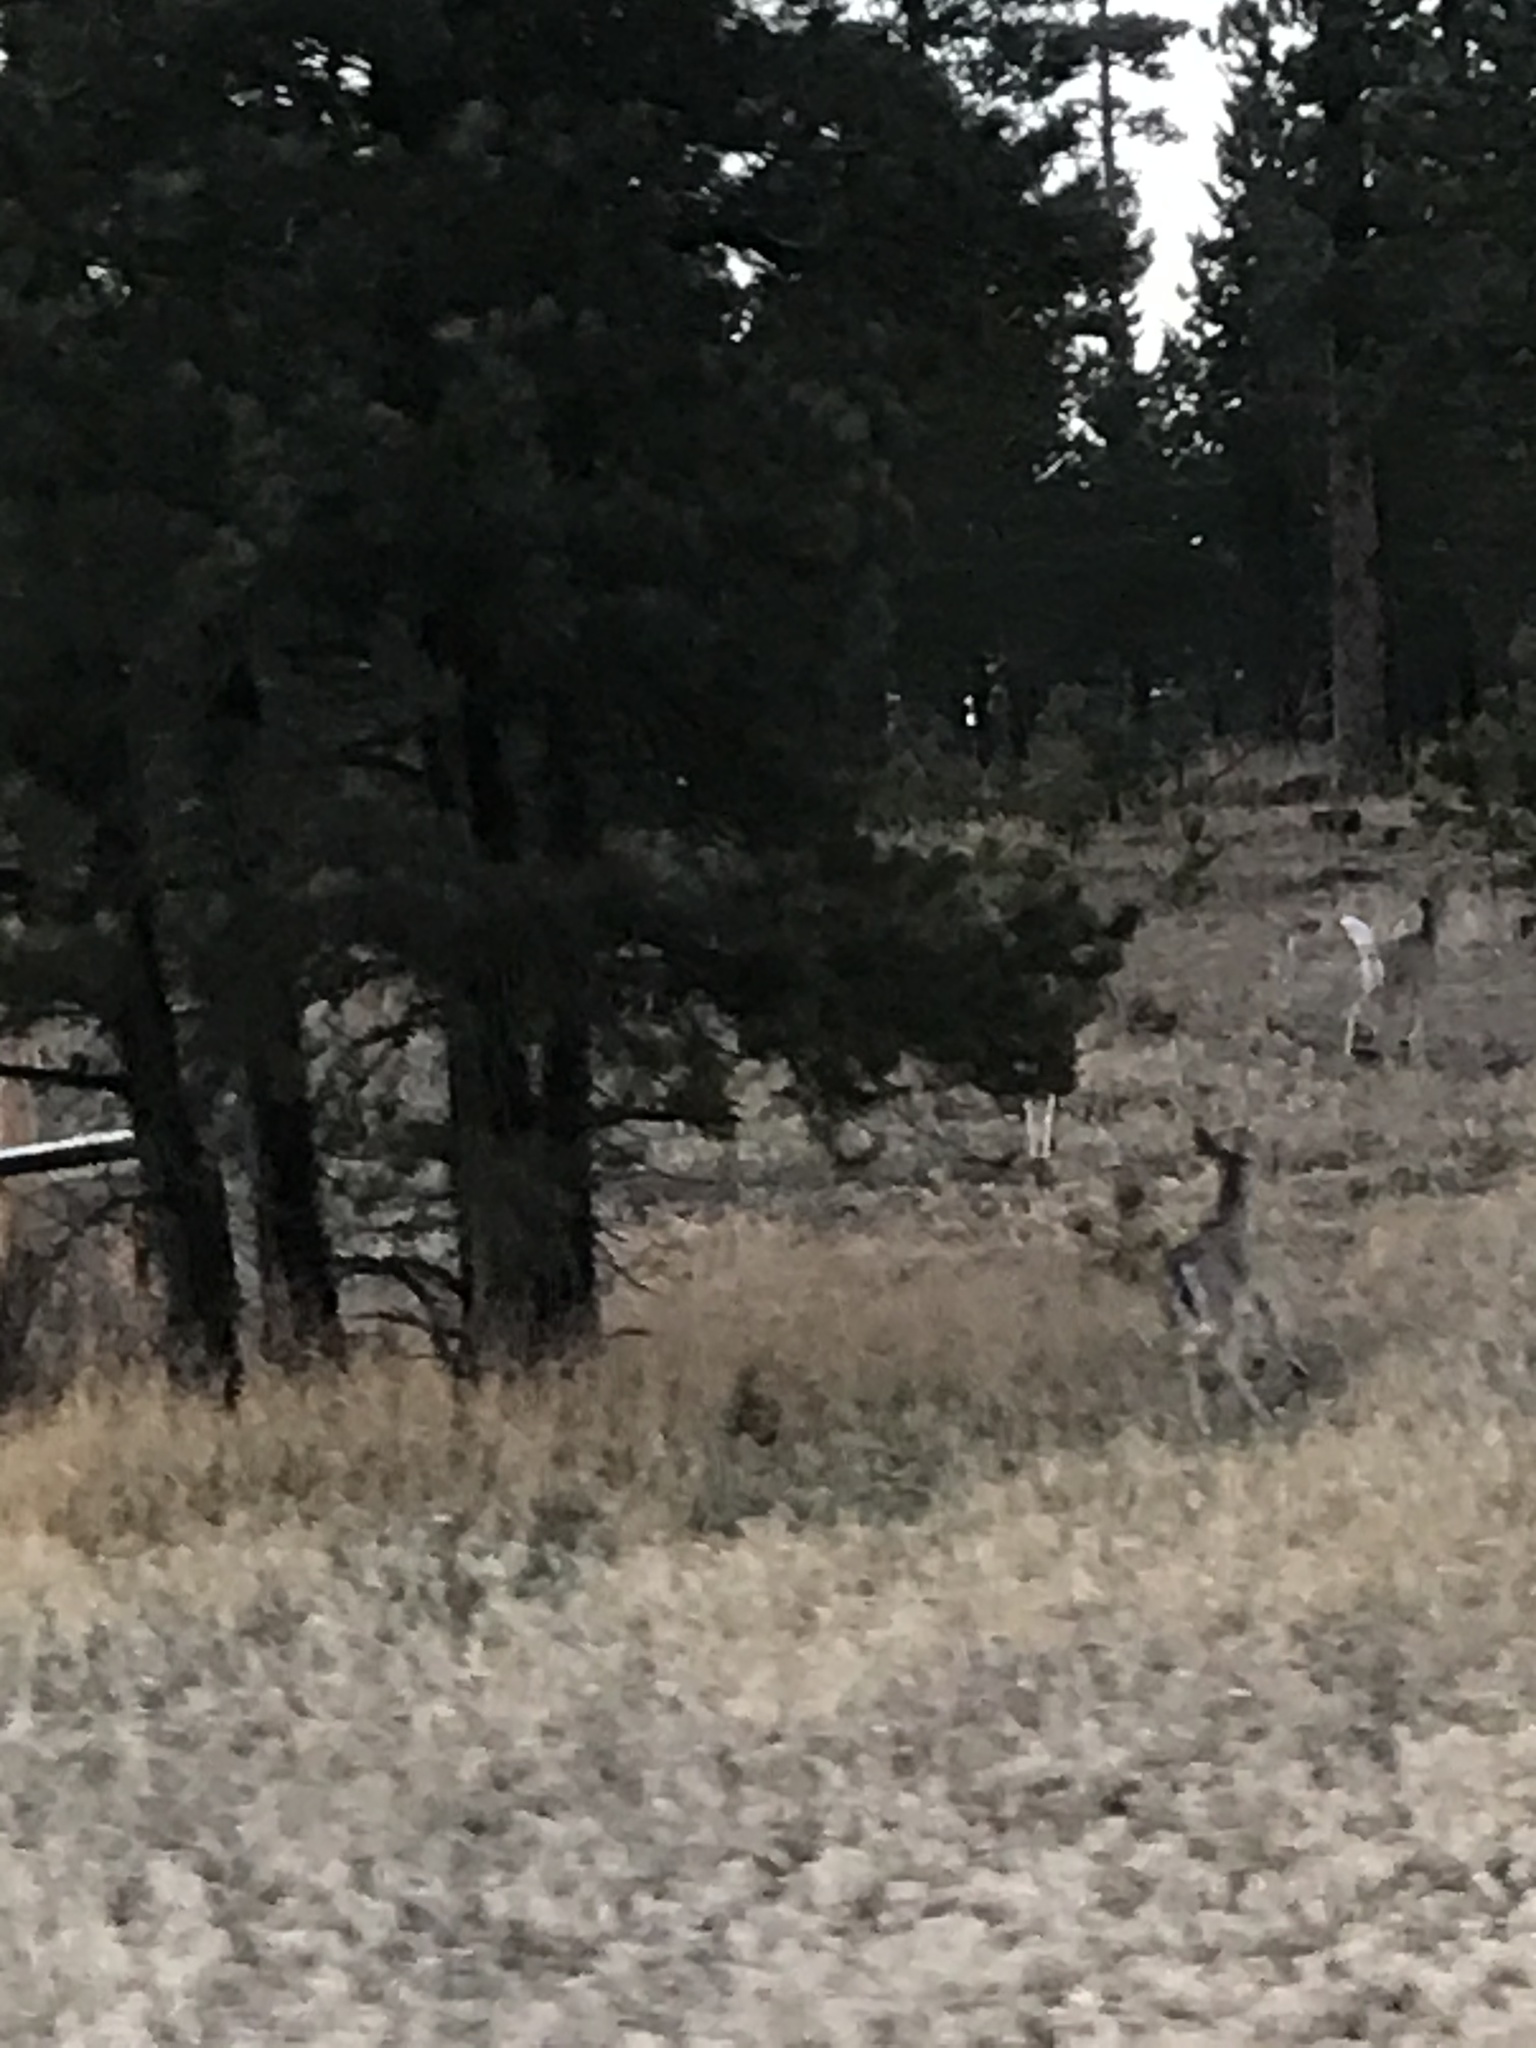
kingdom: Animalia
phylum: Chordata
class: Mammalia
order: Artiodactyla
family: Cervidae
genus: Odocoileus
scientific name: Odocoileus virginianus
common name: White-tailed deer
